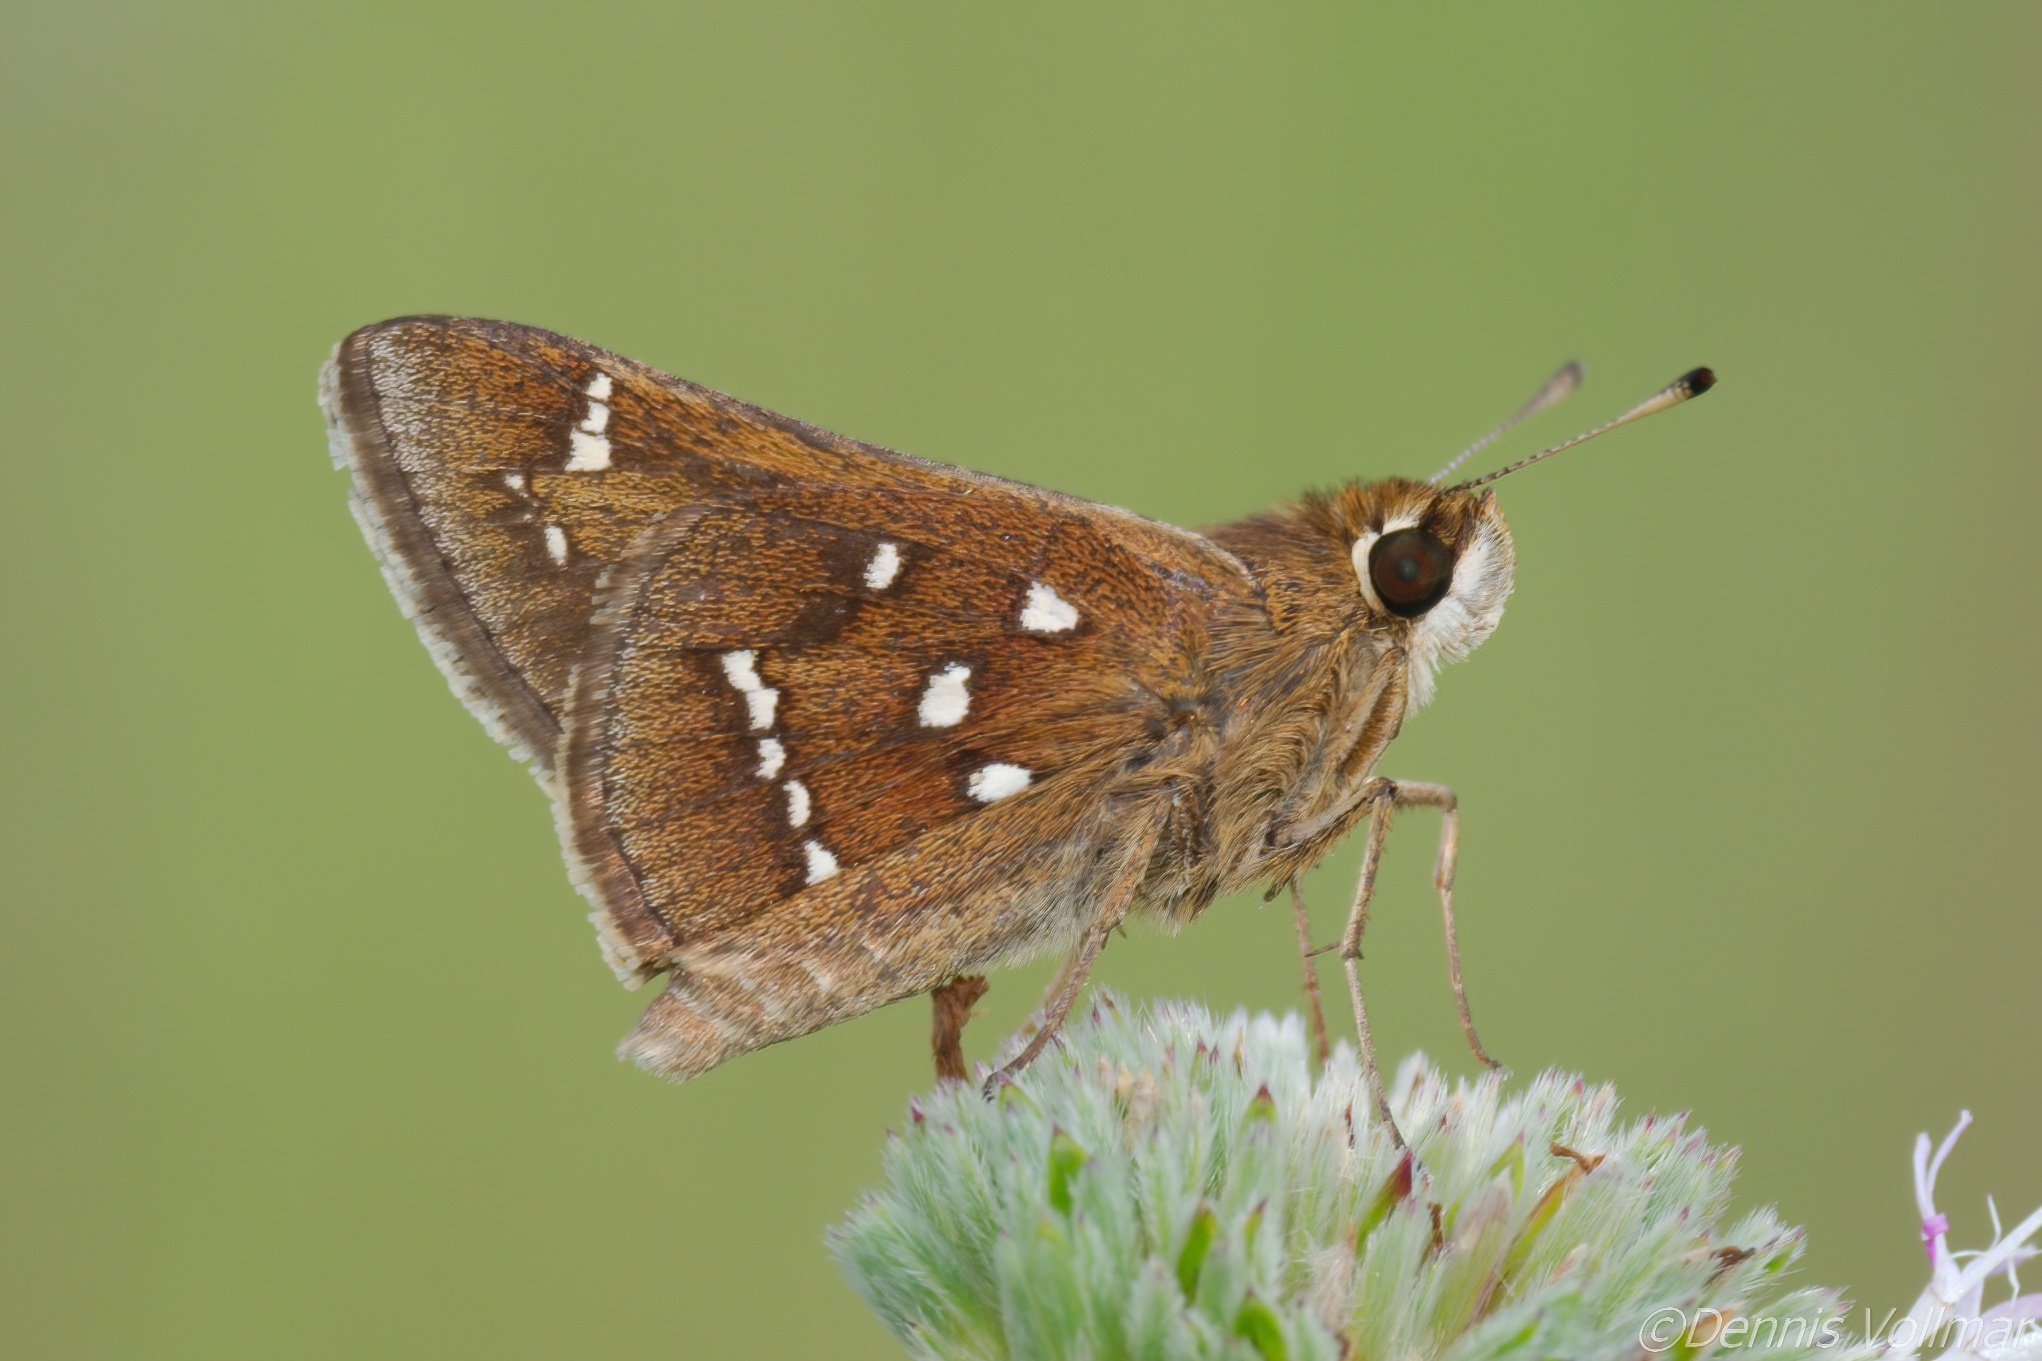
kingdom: Animalia
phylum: Arthropoda
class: Insecta
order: Lepidoptera
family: Hesperiidae
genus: Atrytonopsis
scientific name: Atrytonopsis loammi
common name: Loammi skipper
